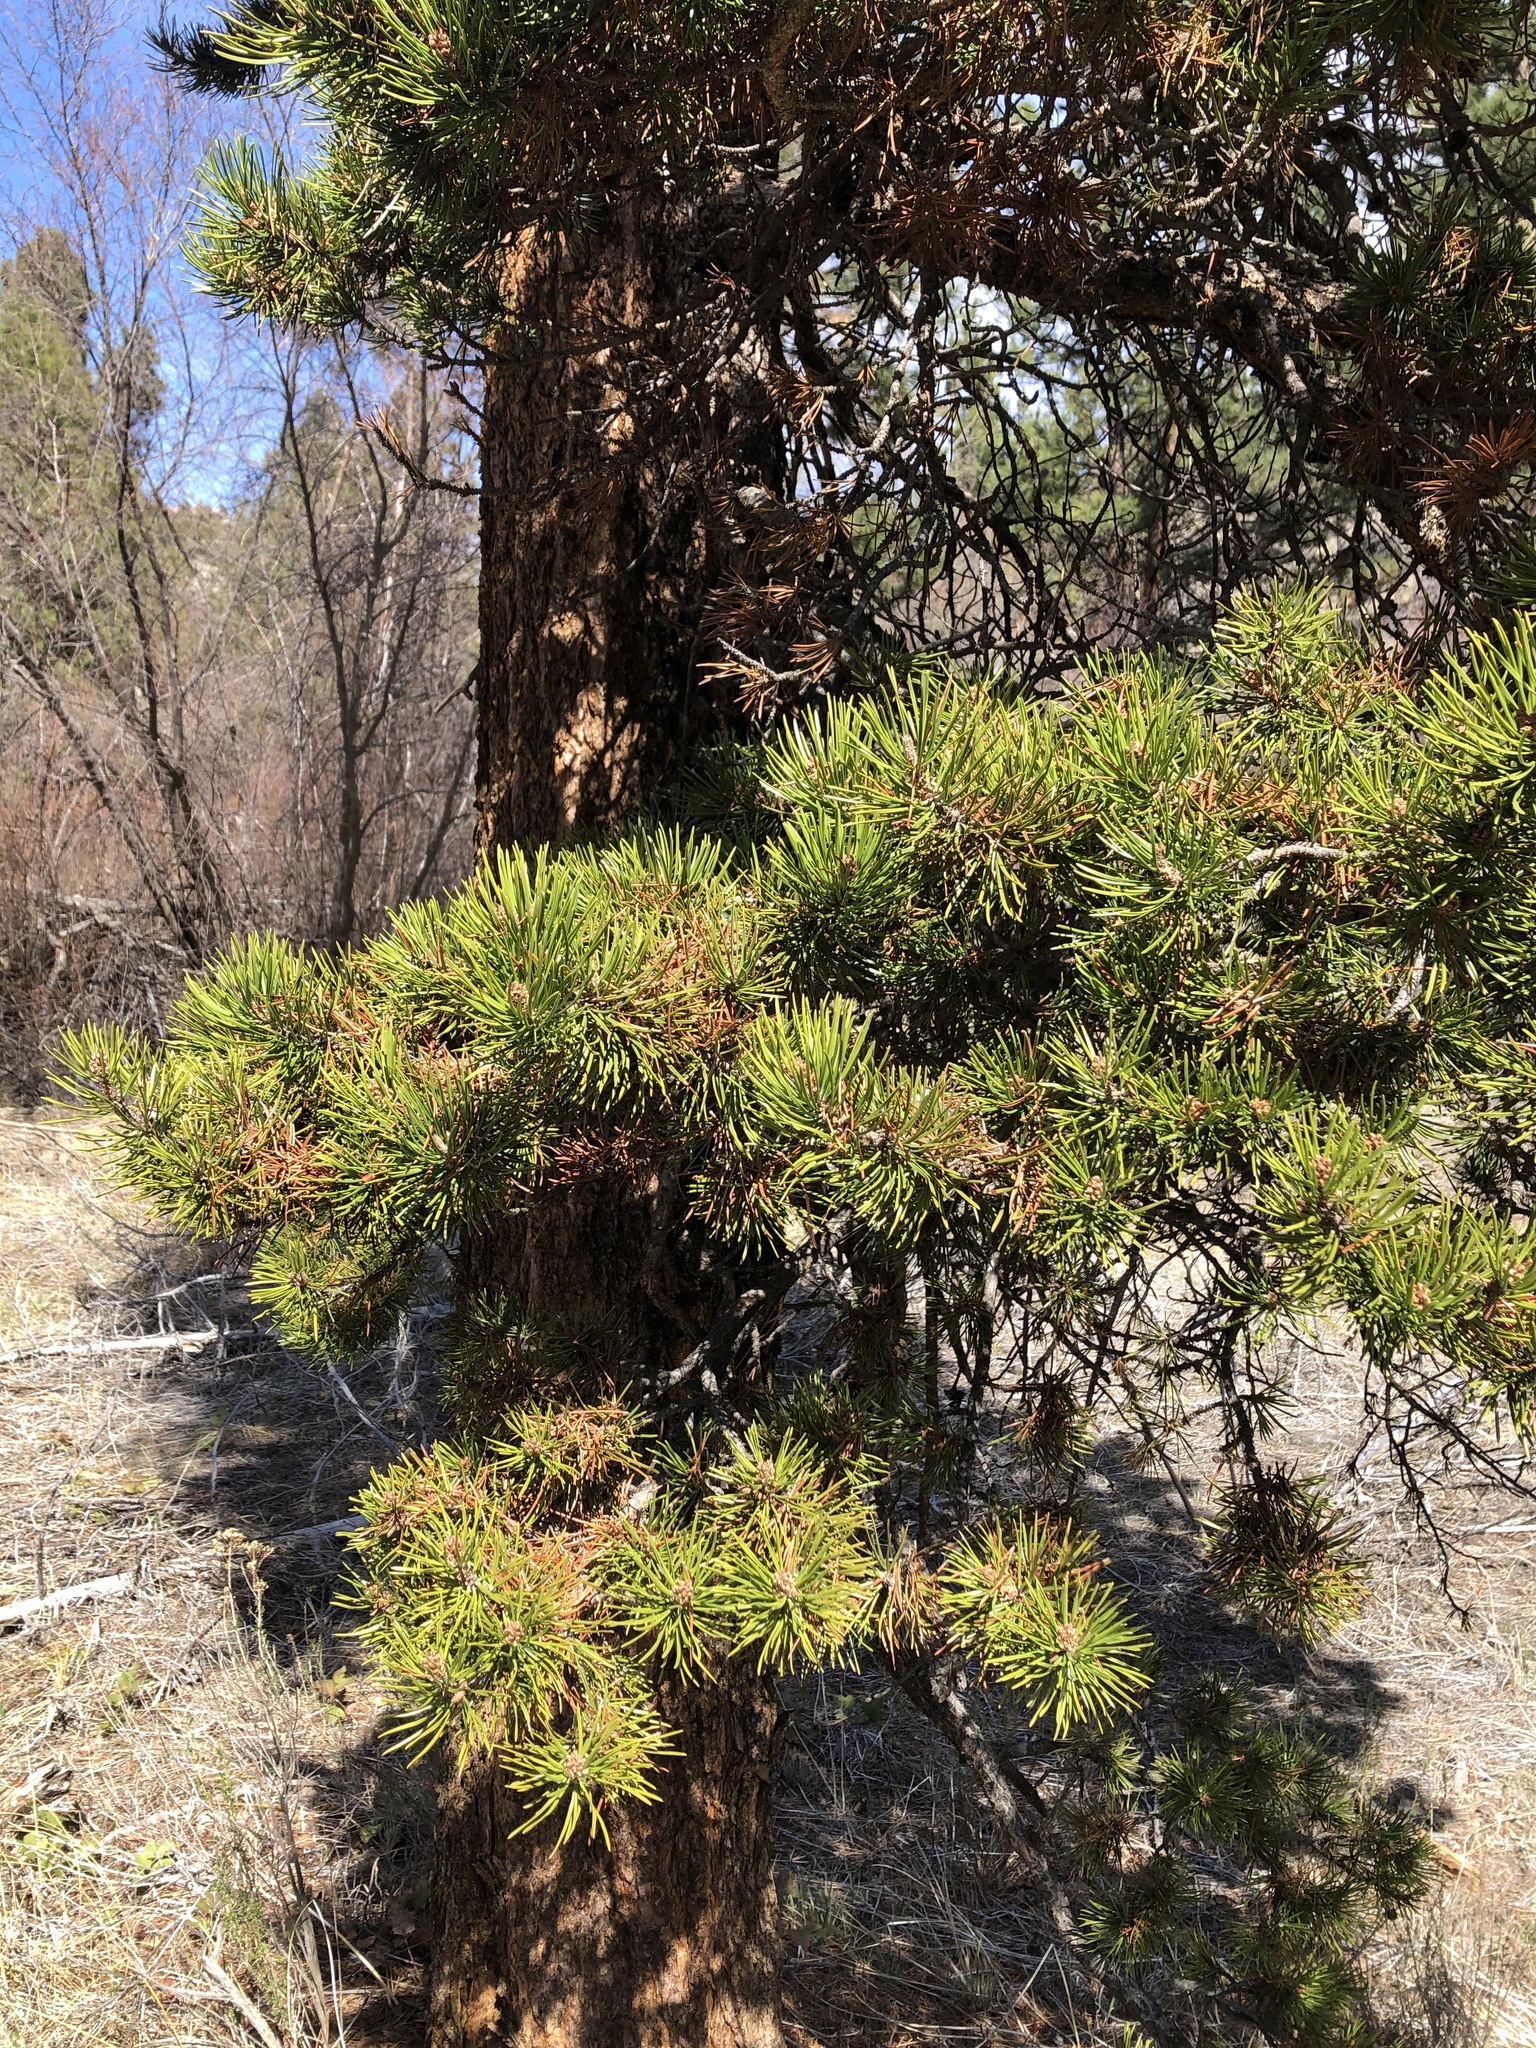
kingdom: Plantae
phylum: Tracheophyta
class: Pinopsida
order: Pinales
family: Pinaceae
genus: Pinus
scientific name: Pinus contorta
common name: Lodgepole pine
